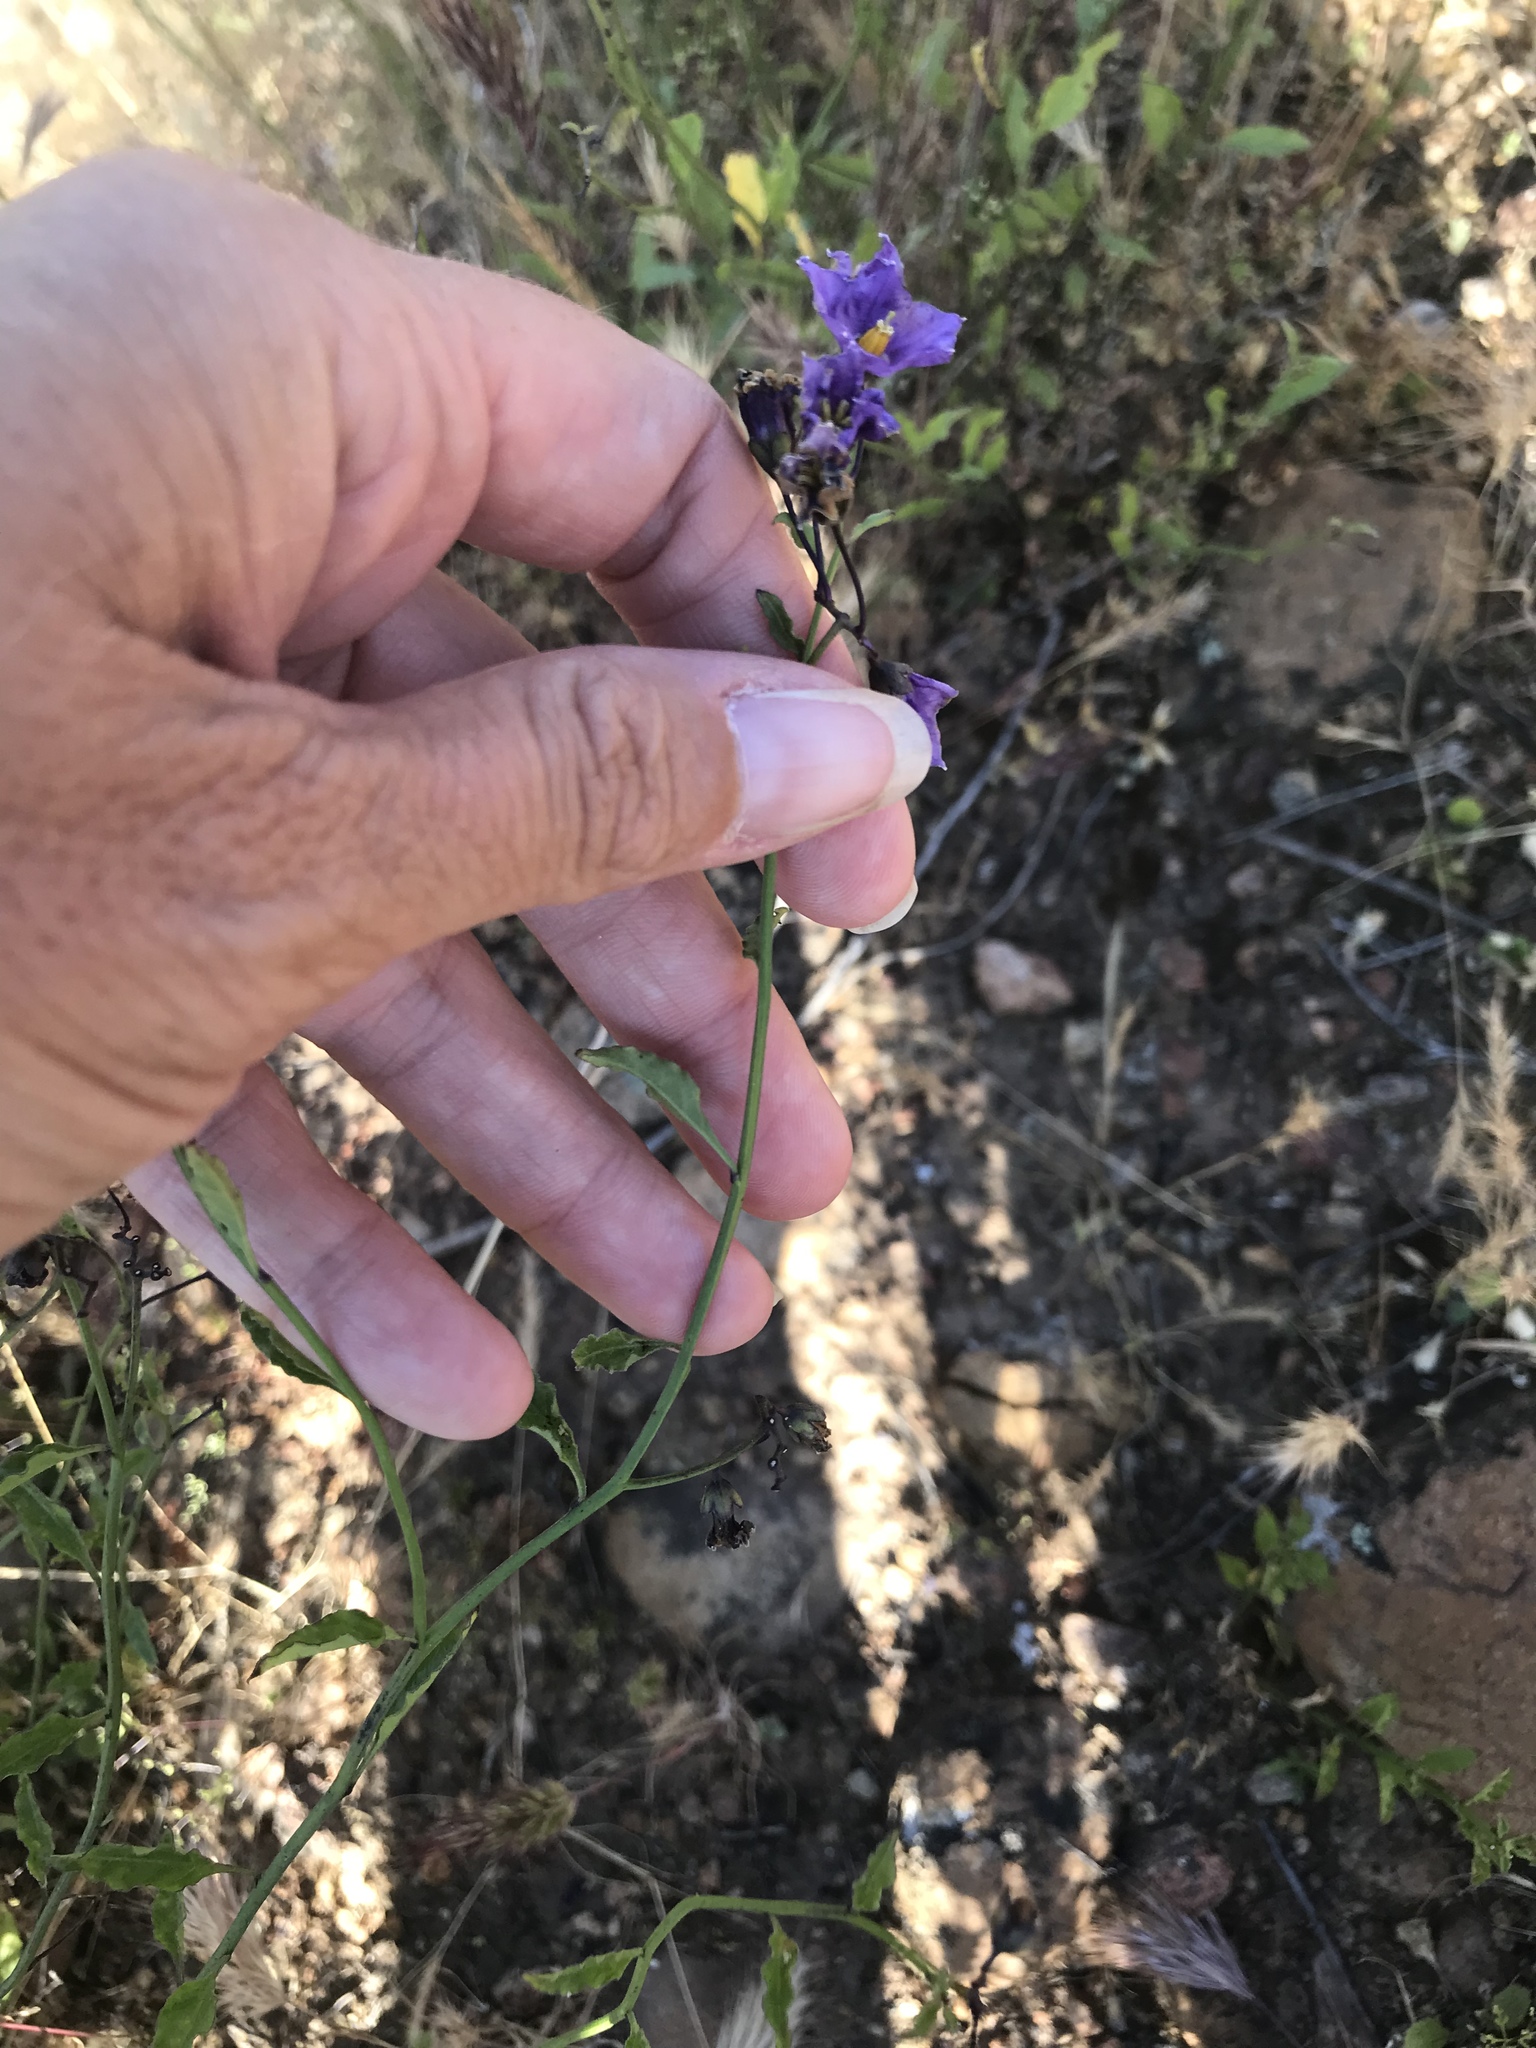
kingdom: Plantae
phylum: Tracheophyta
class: Magnoliopsida
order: Solanales
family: Solanaceae
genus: Solanum
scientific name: Solanum umbelliferum
